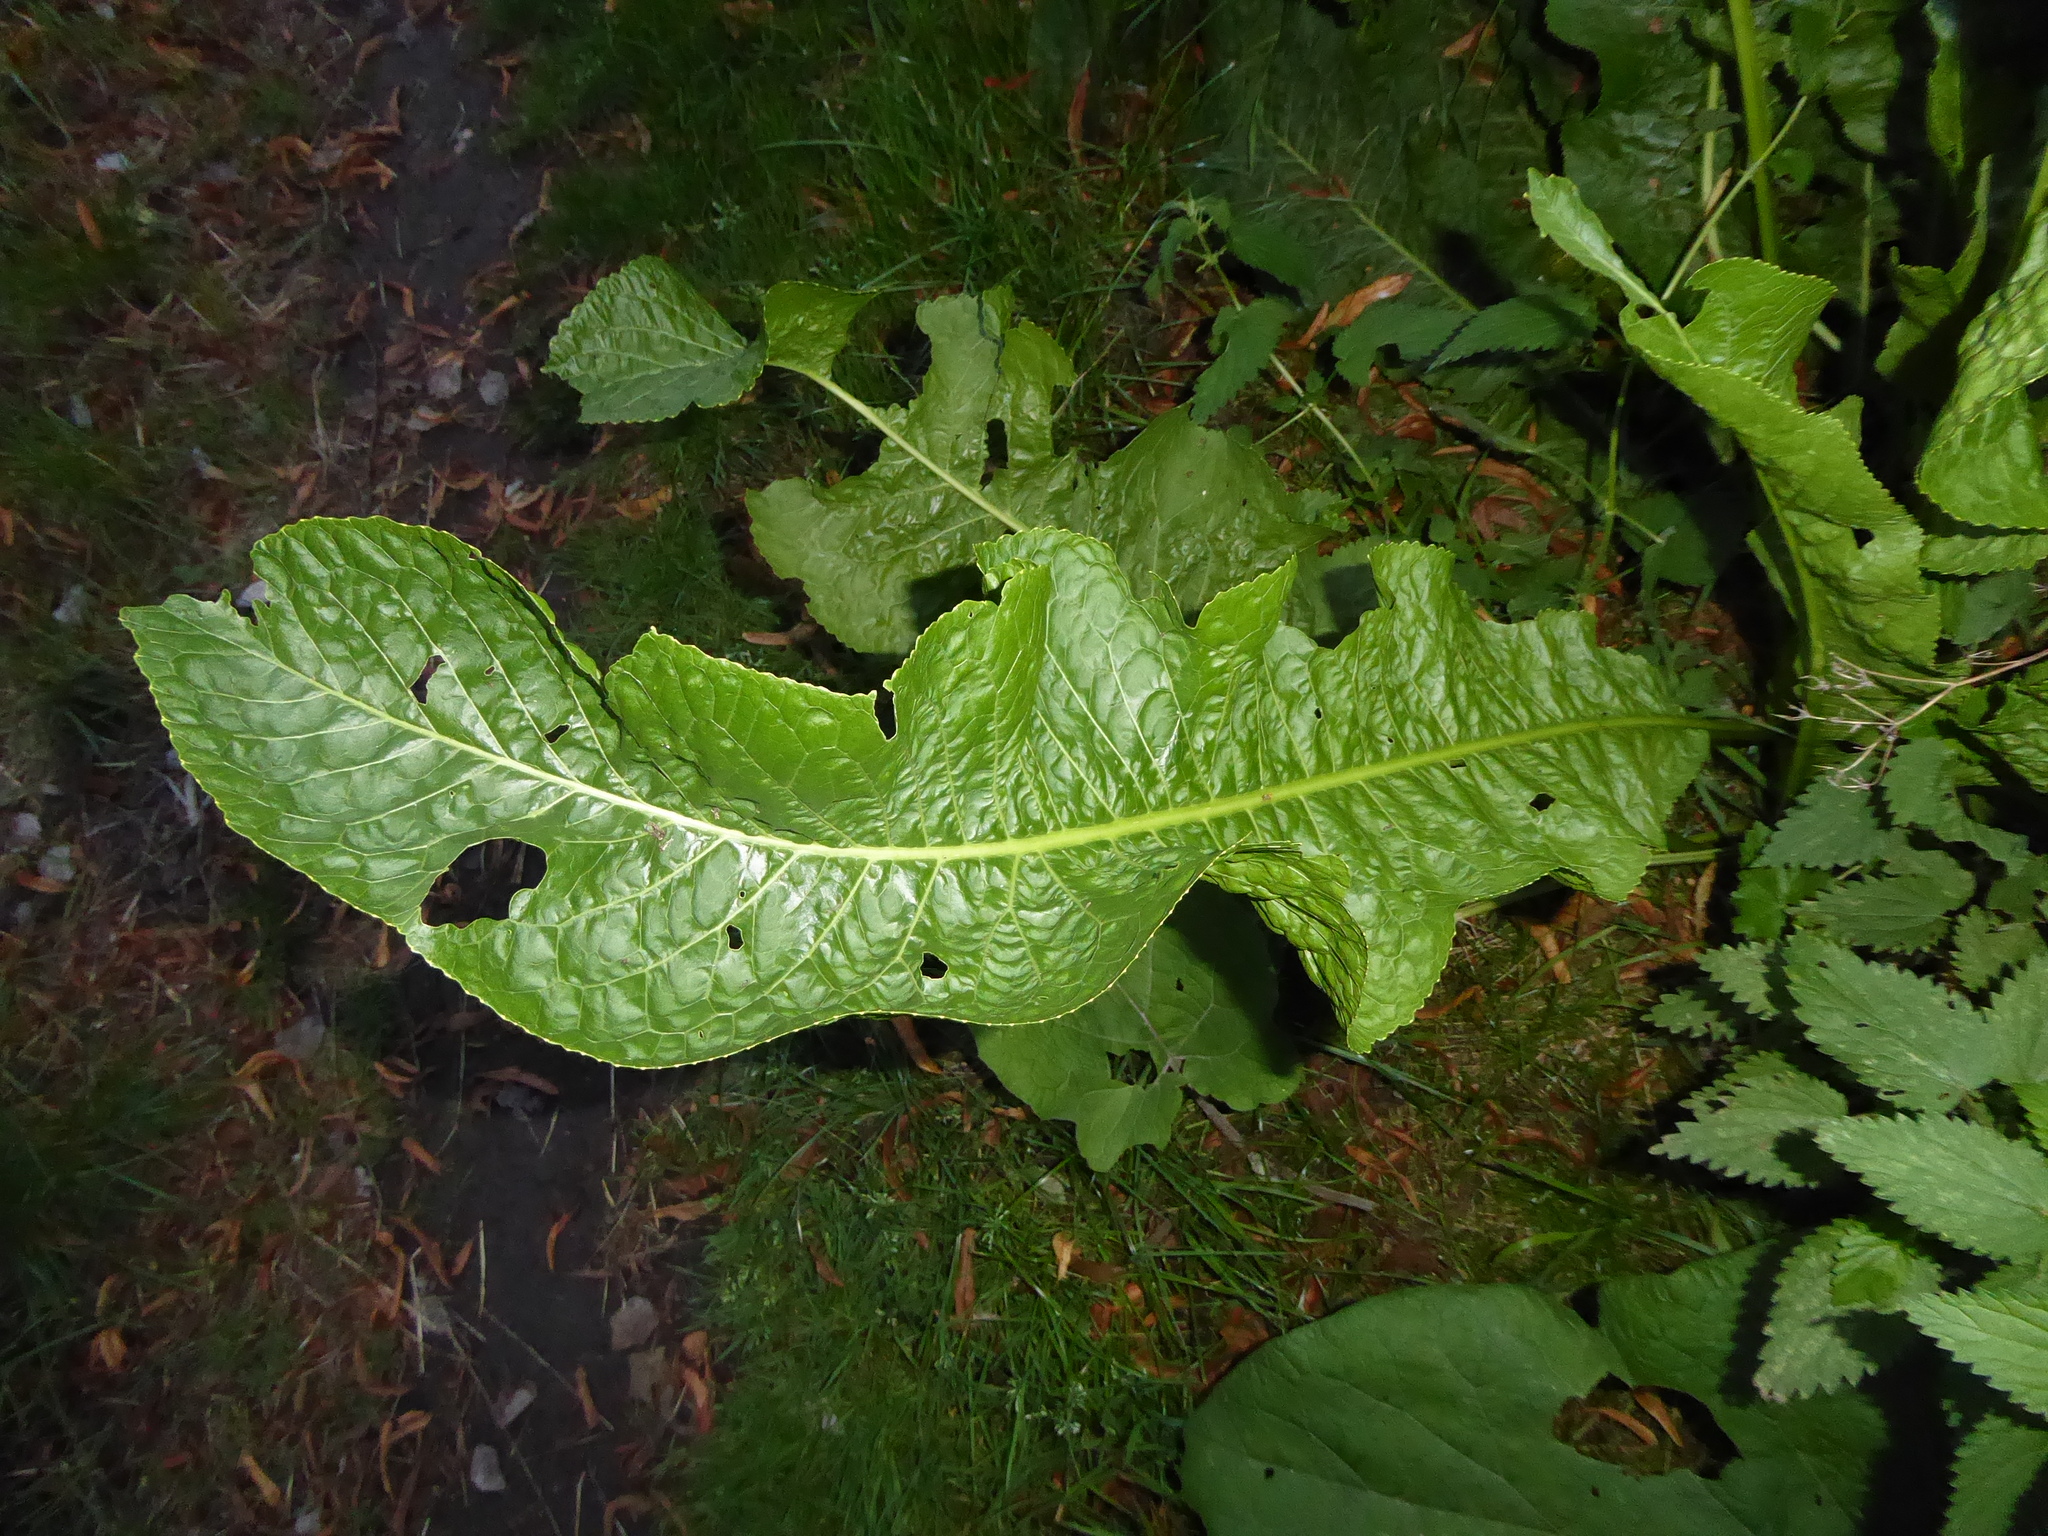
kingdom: Plantae
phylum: Tracheophyta
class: Magnoliopsida
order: Brassicales
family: Brassicaceae
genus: Armoracia
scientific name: Armoracia rusticana
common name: Horseradish
